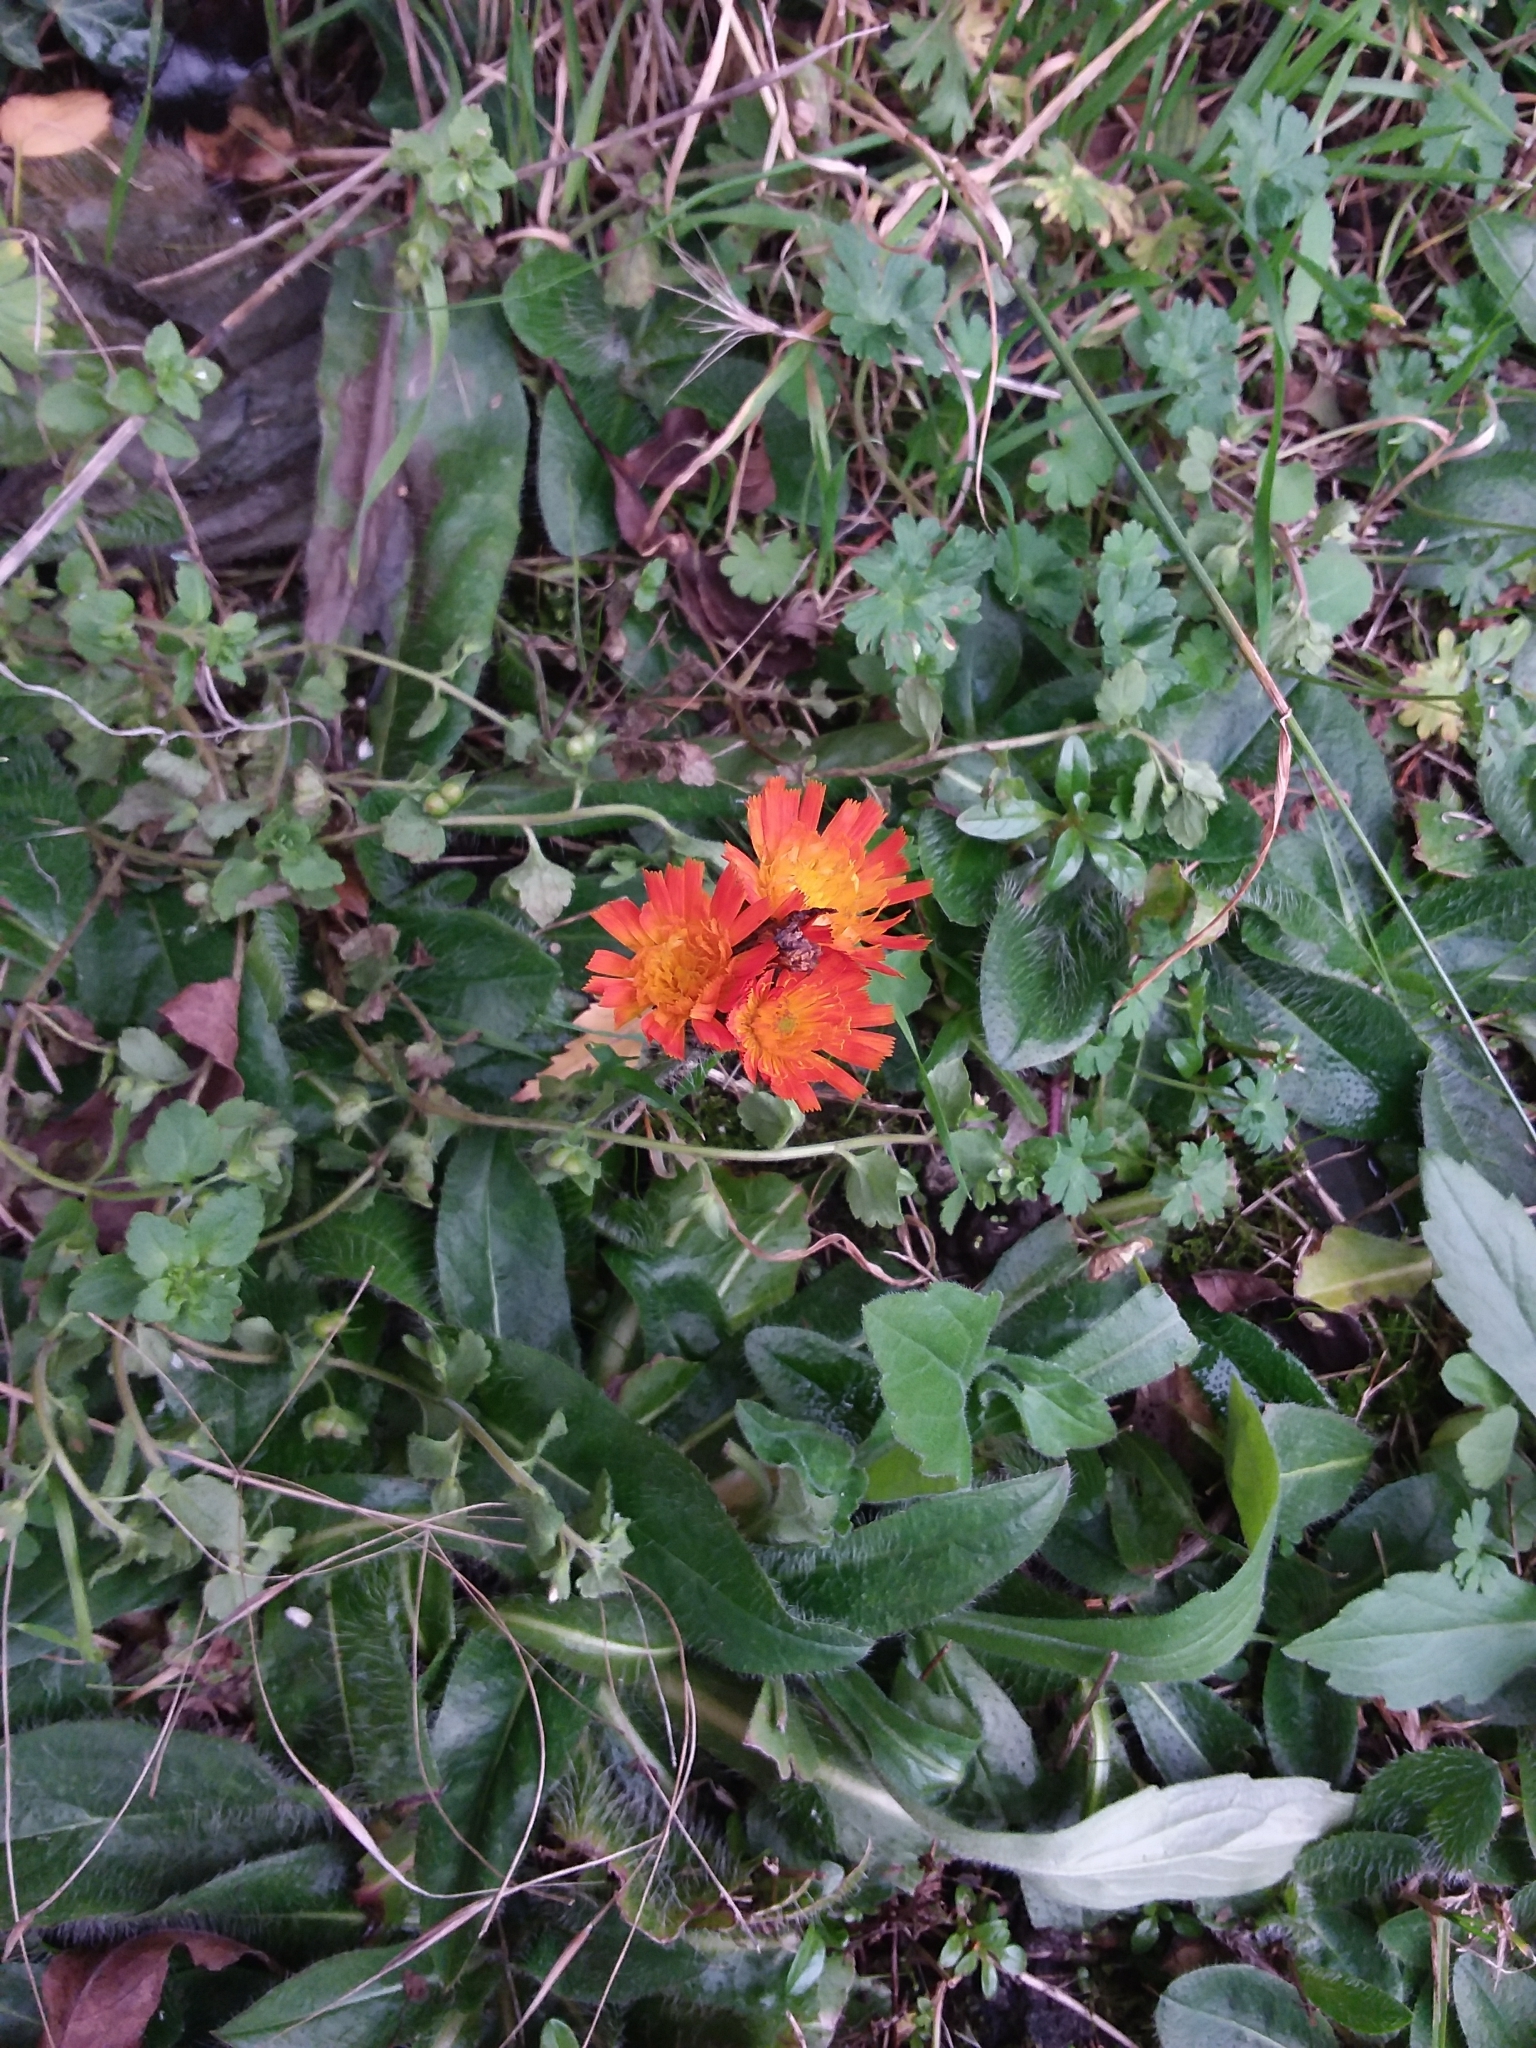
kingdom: Plantae
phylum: Tracheophyta
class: Magnoliopsida
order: Asterales
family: Asteraceae
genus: Pilosella
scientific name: Pilosella aurantiaca
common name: Fox-and-cubs
